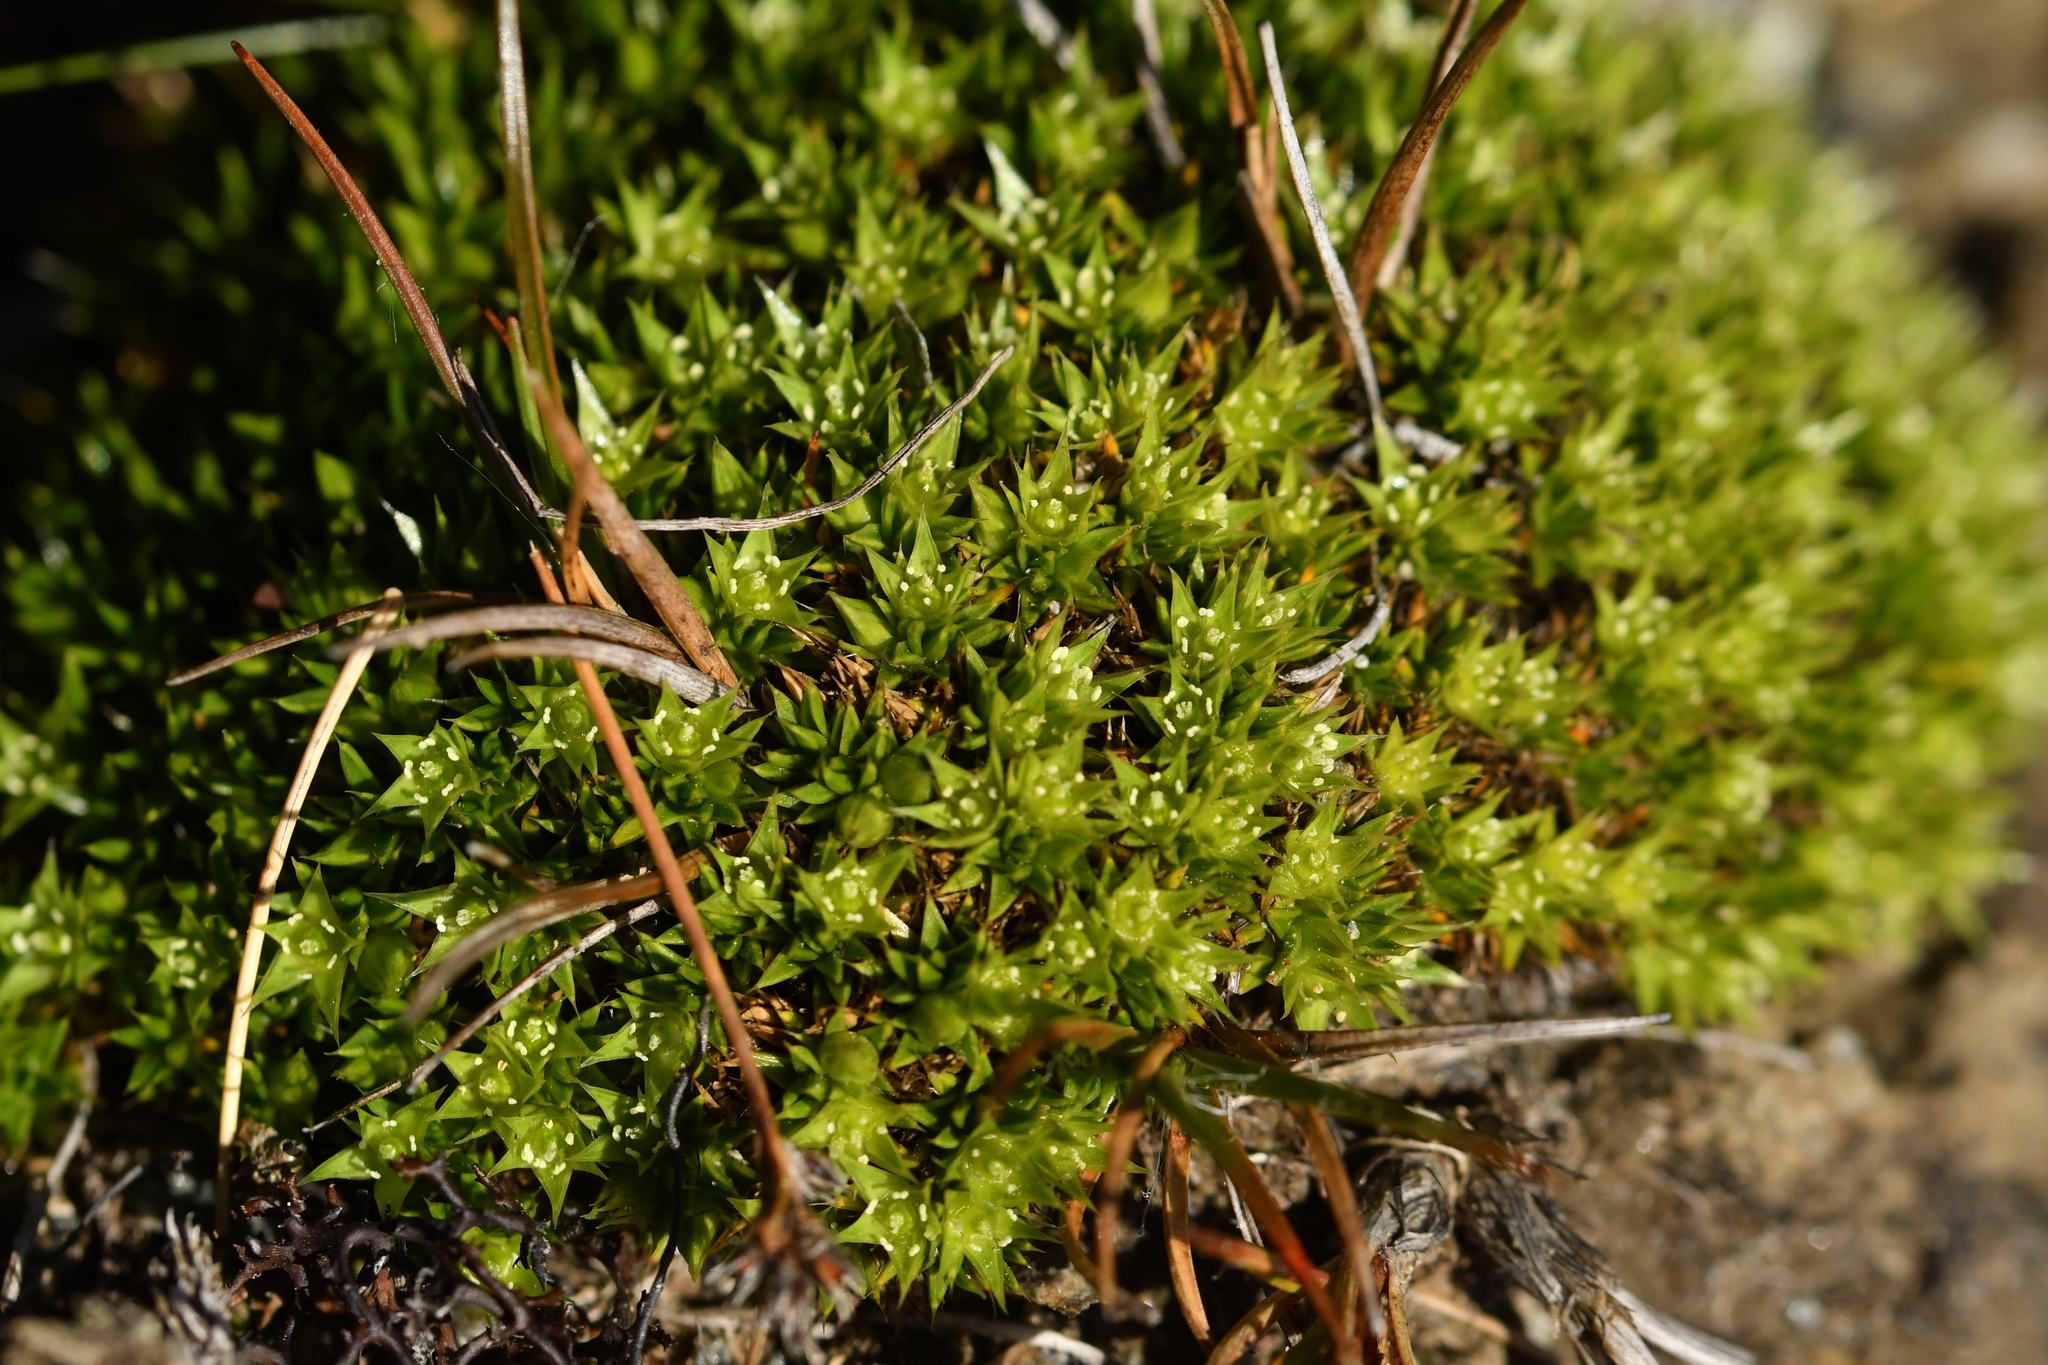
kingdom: Plantae
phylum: Tracheophyta
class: Magnoliopsida
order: Caryophyllales
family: Caryophyllaceae
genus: Colobanthus
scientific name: Colobanthus buchananii
